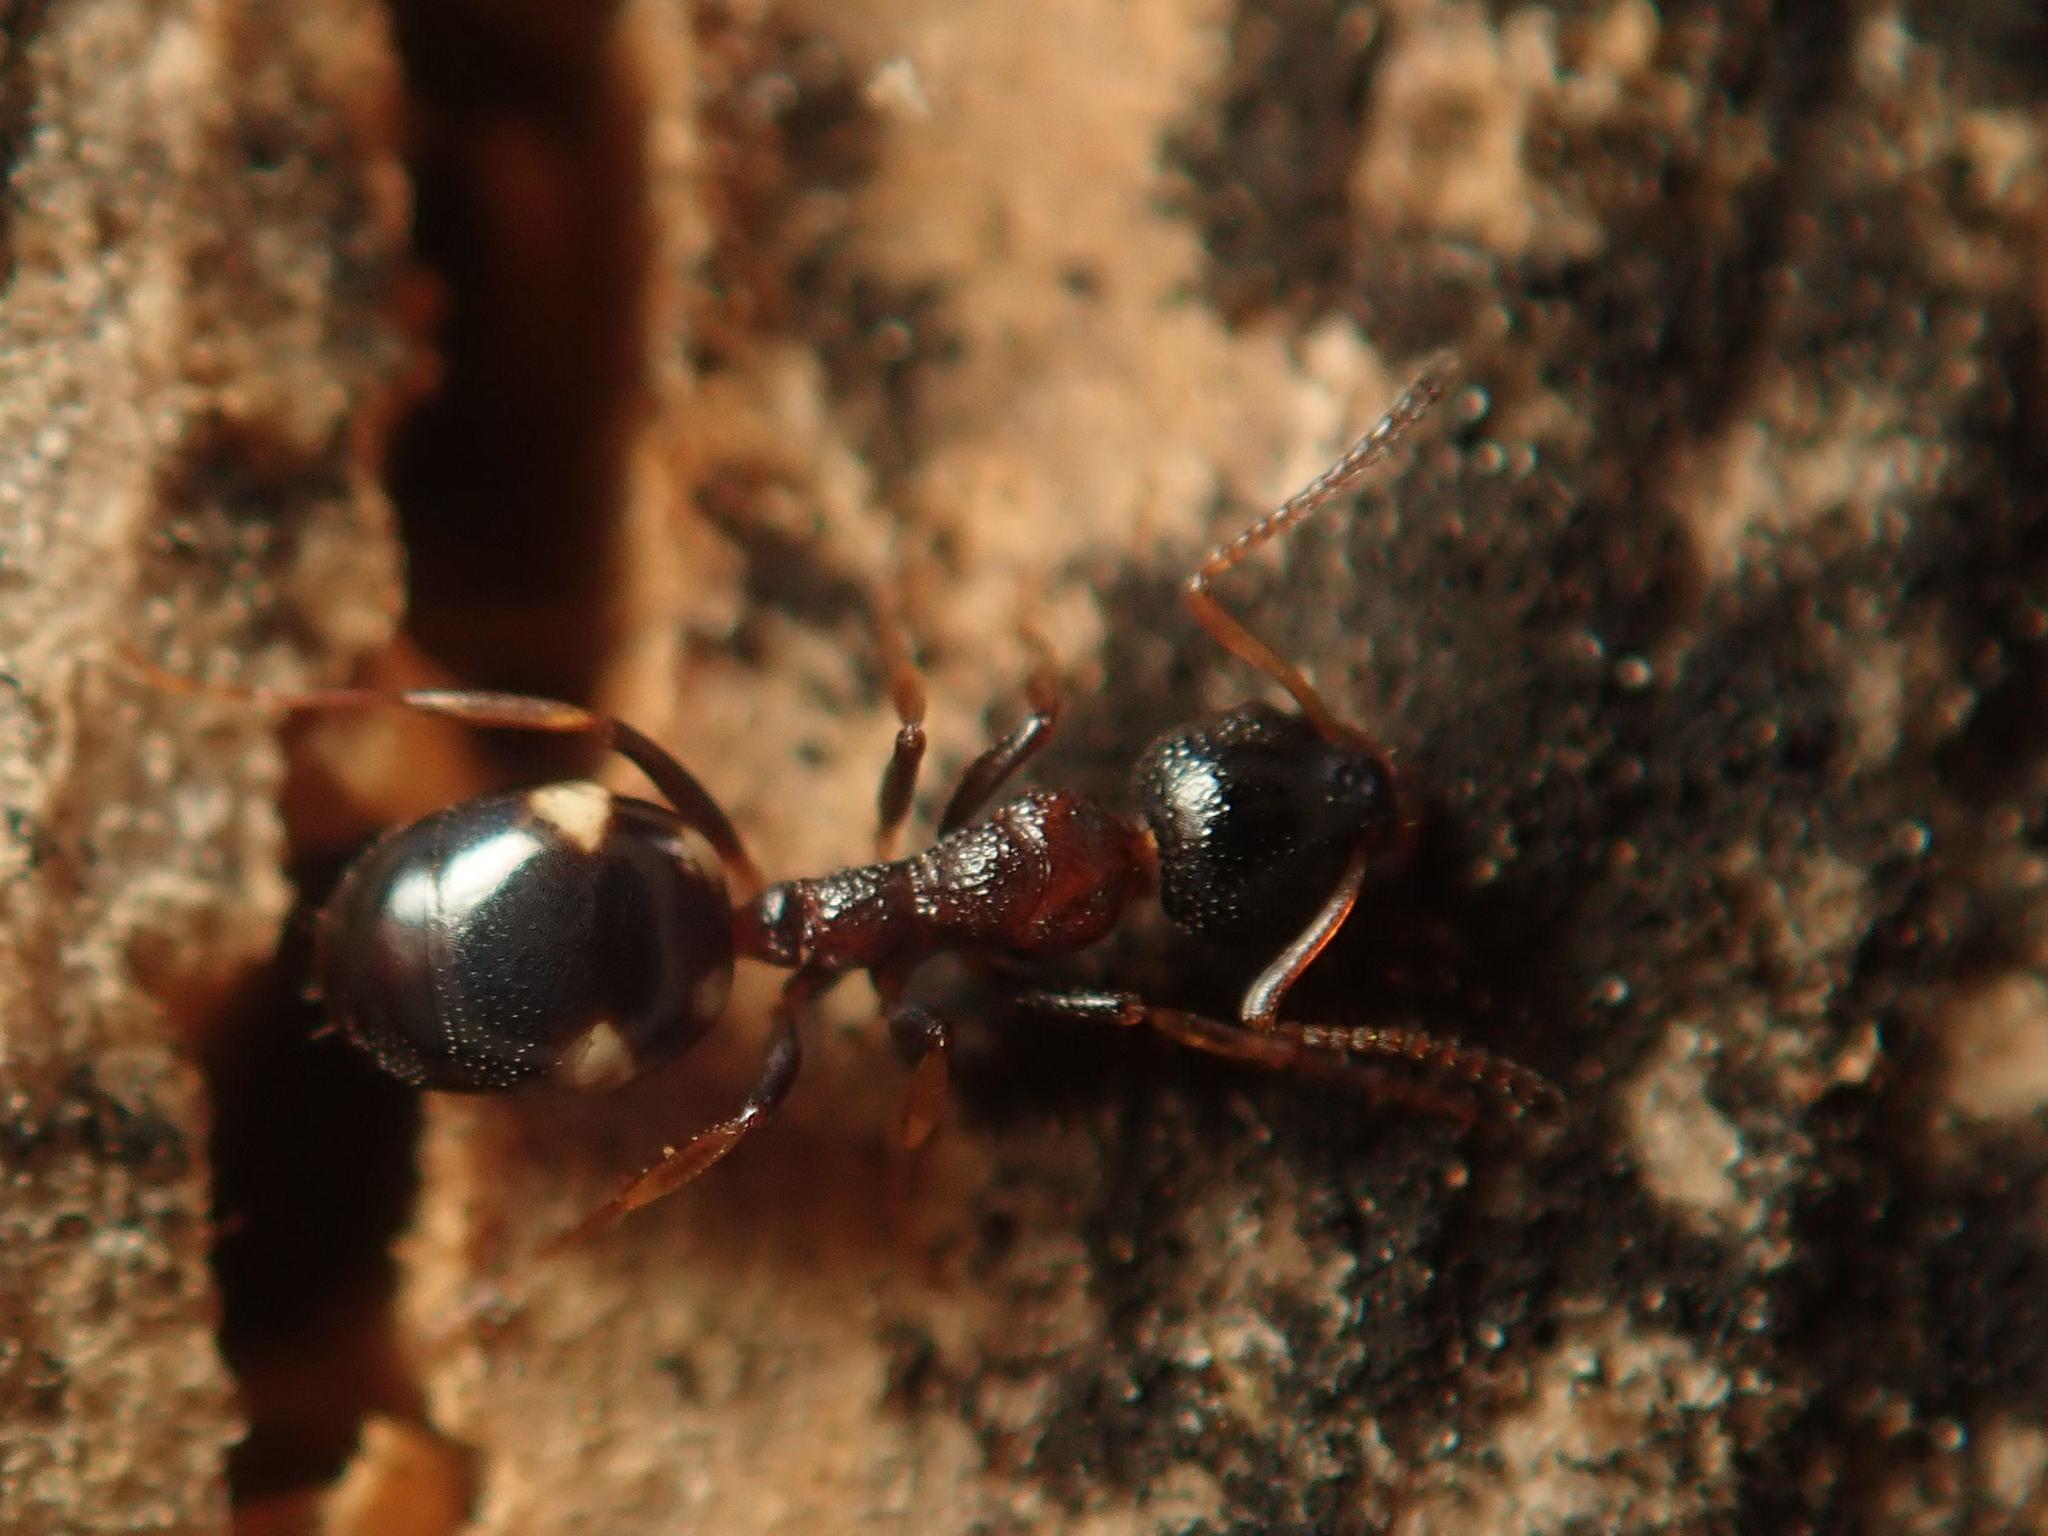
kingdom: Animalia
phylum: Arthropoda
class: Insecta
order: Hymenoptera
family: Formicidae
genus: Dolichoderus
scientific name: Dolichoderus quadripunctatus
